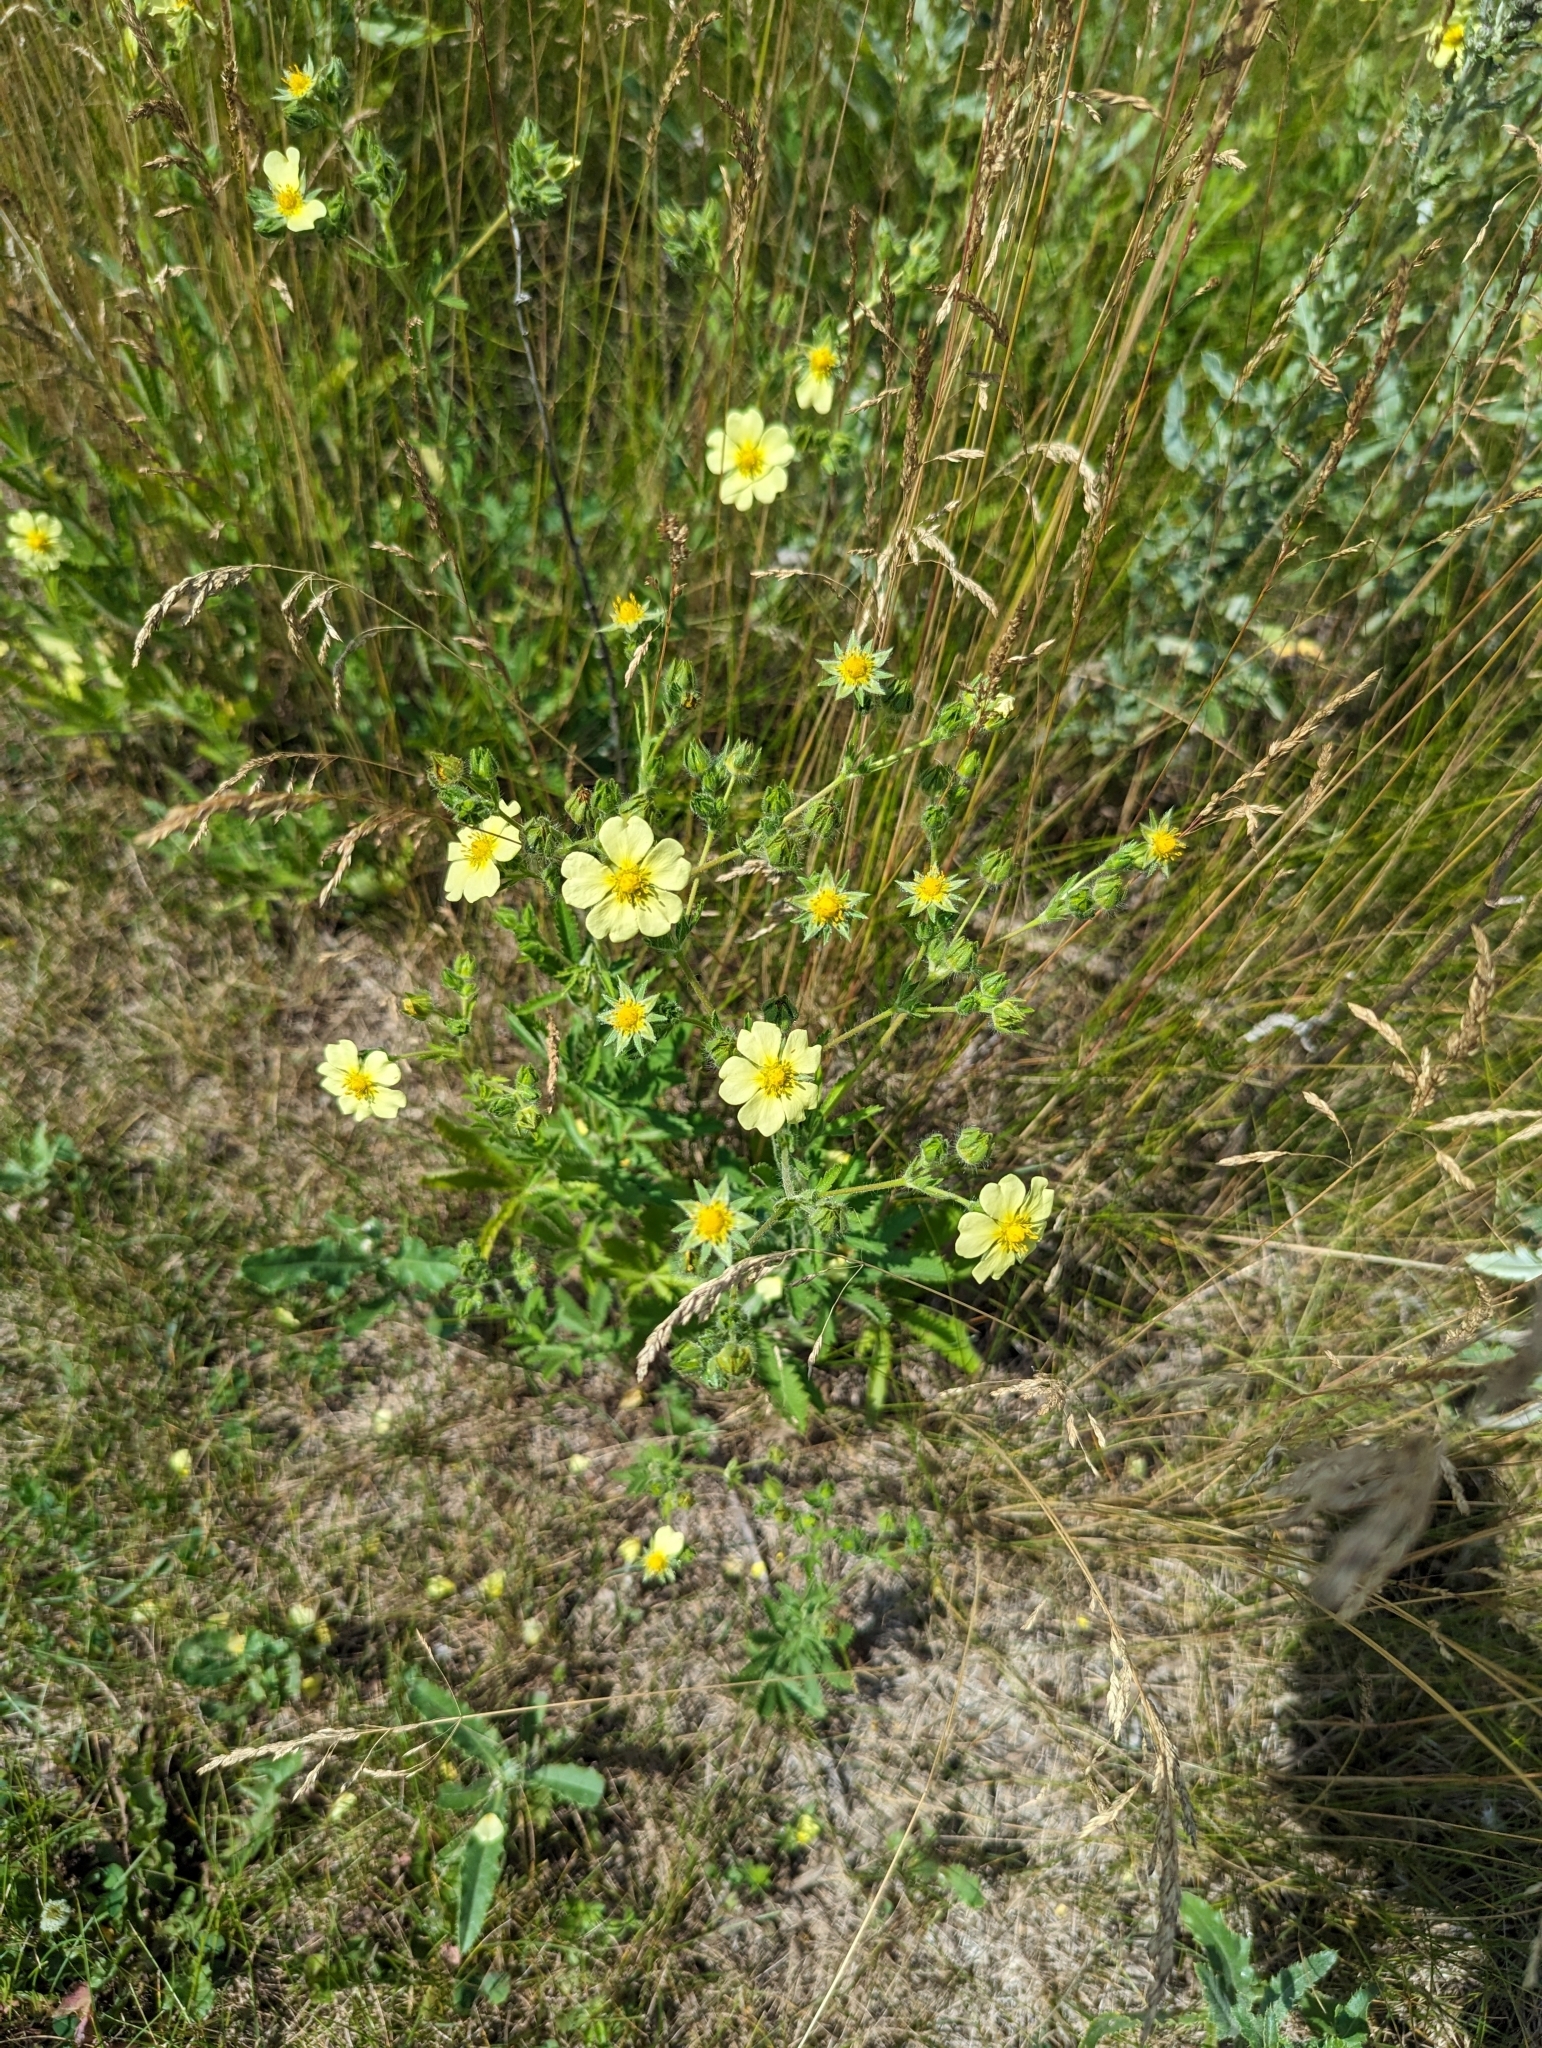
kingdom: Plantae
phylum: Tracheophyta
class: Magnoliopsida
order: Rosales
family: Rosaceae
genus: Potentilla
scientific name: Potentilla recta
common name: Sulphur cinquefoil
